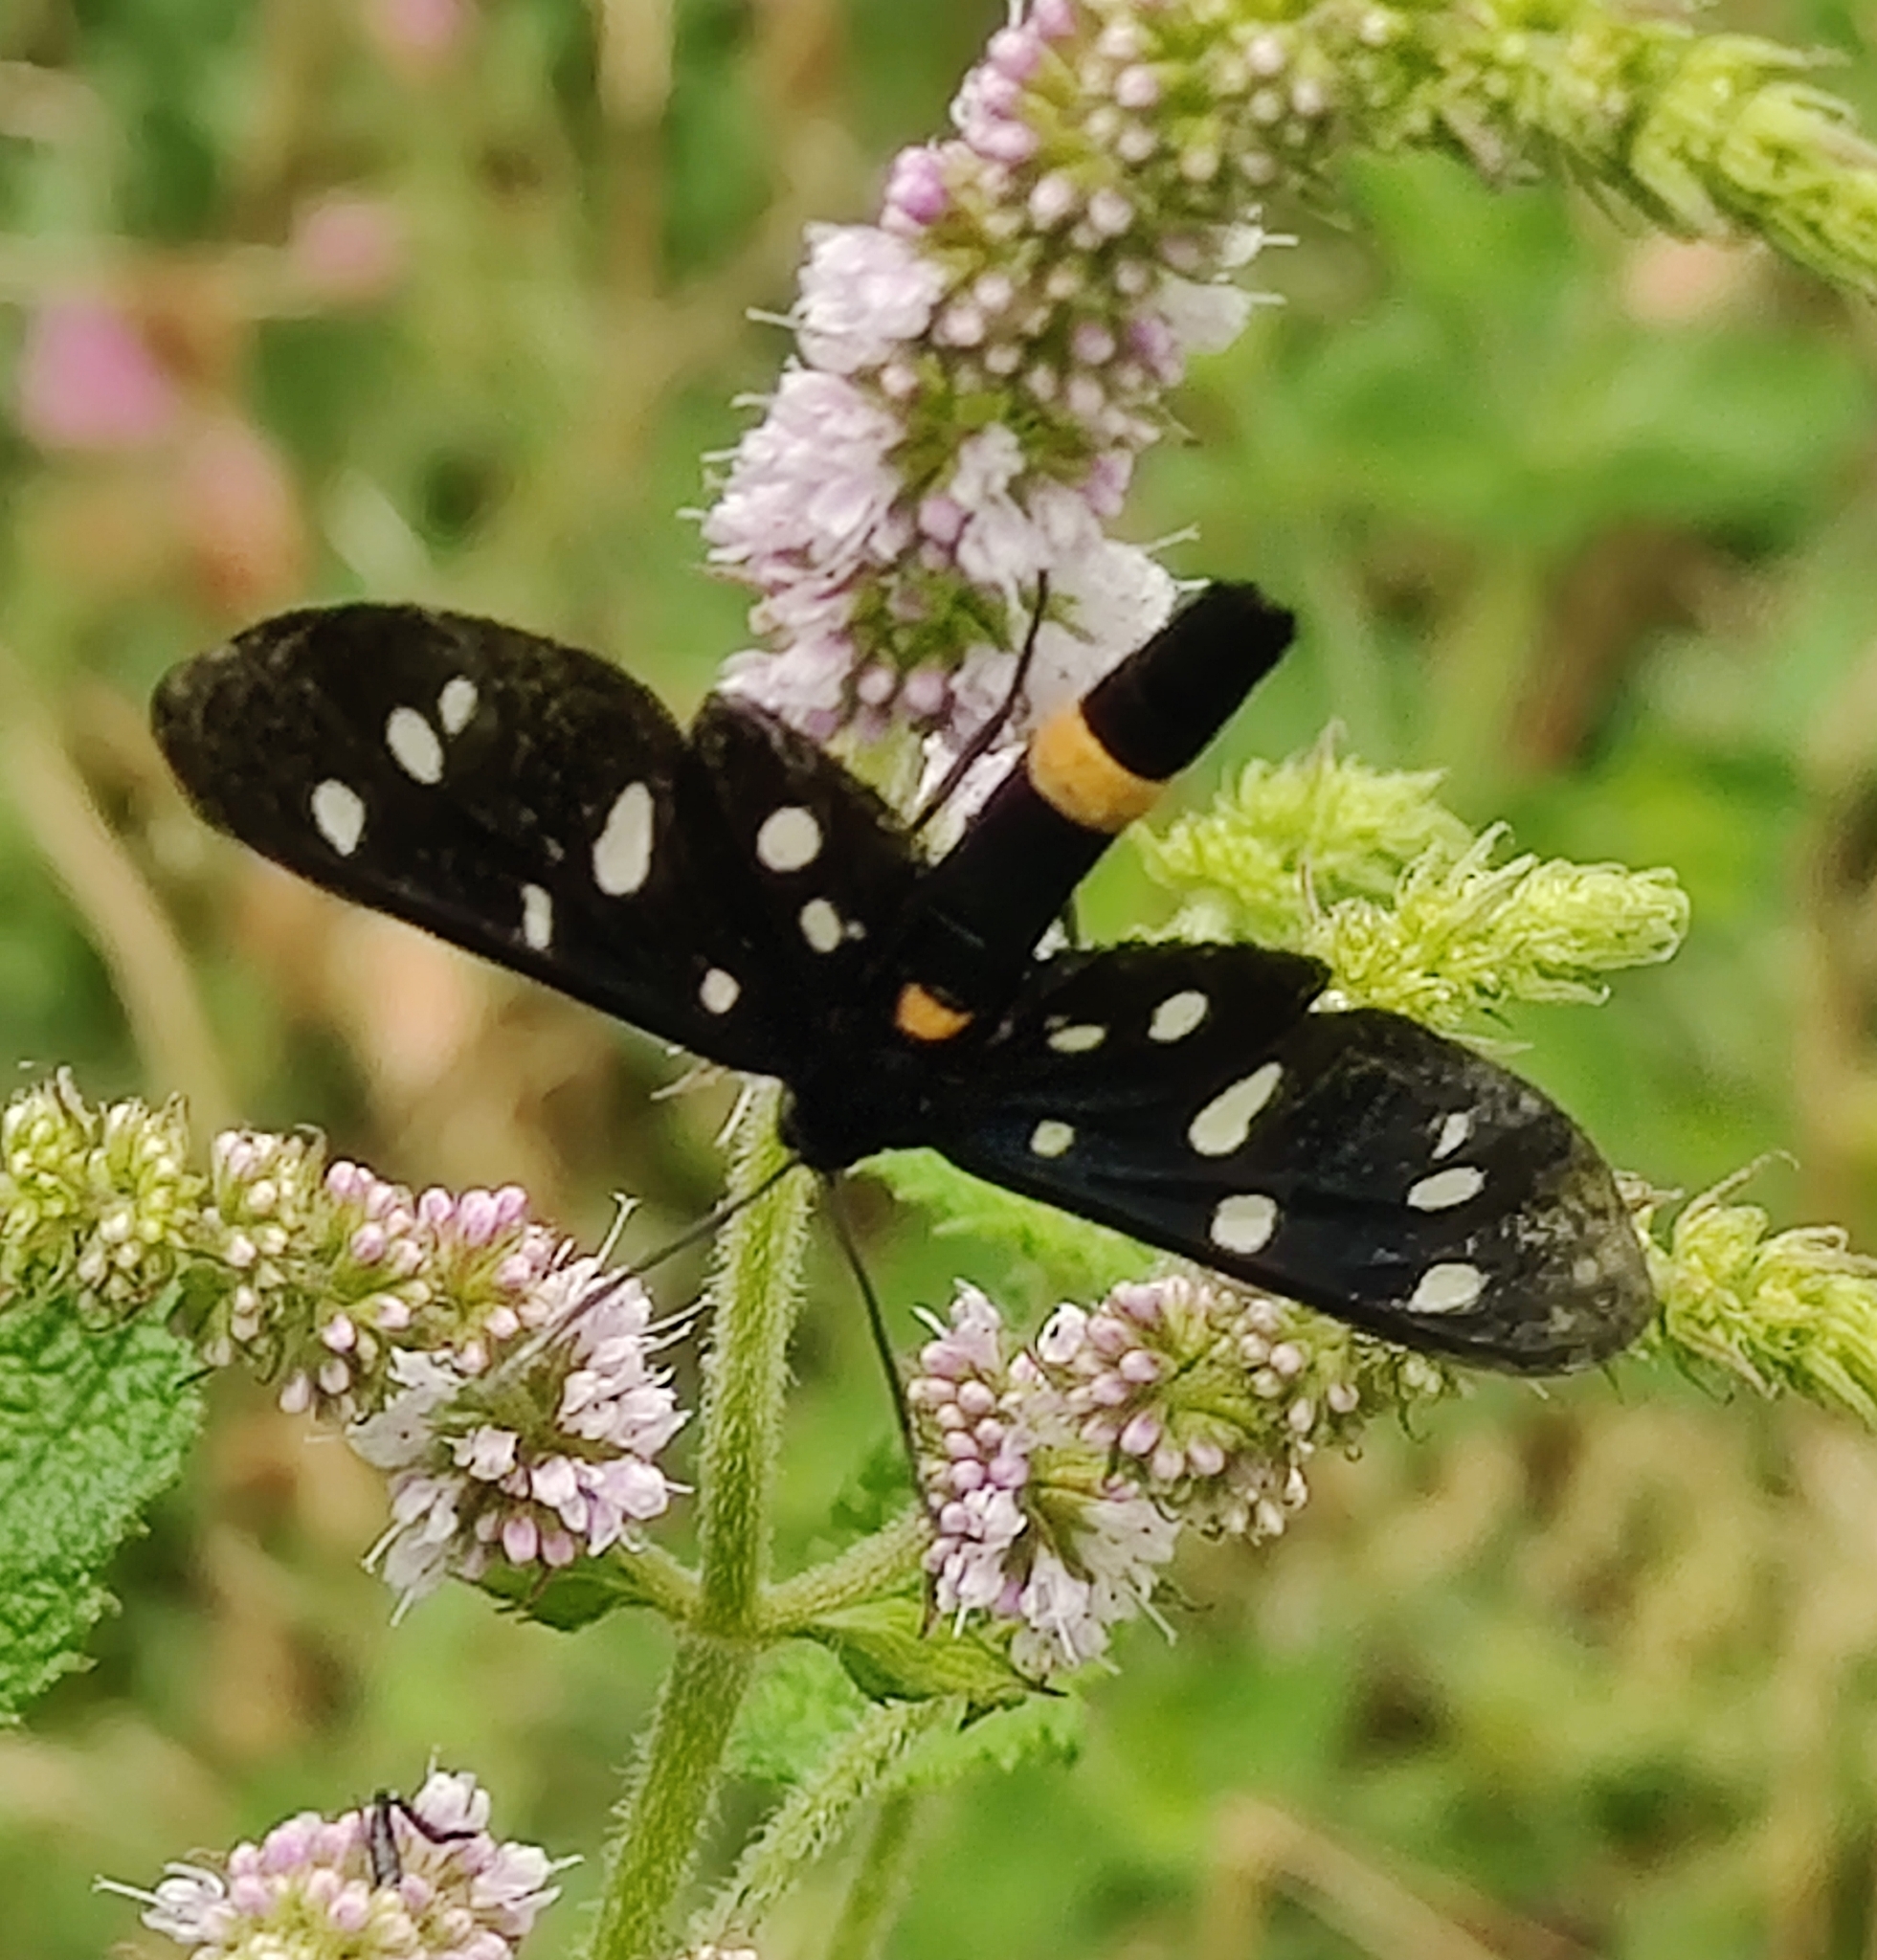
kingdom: Animalia
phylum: Arthropoda
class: Insecta
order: Lepidoptera
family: Erebidae
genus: Amata
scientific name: Amata phegea
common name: Nine-spotted
